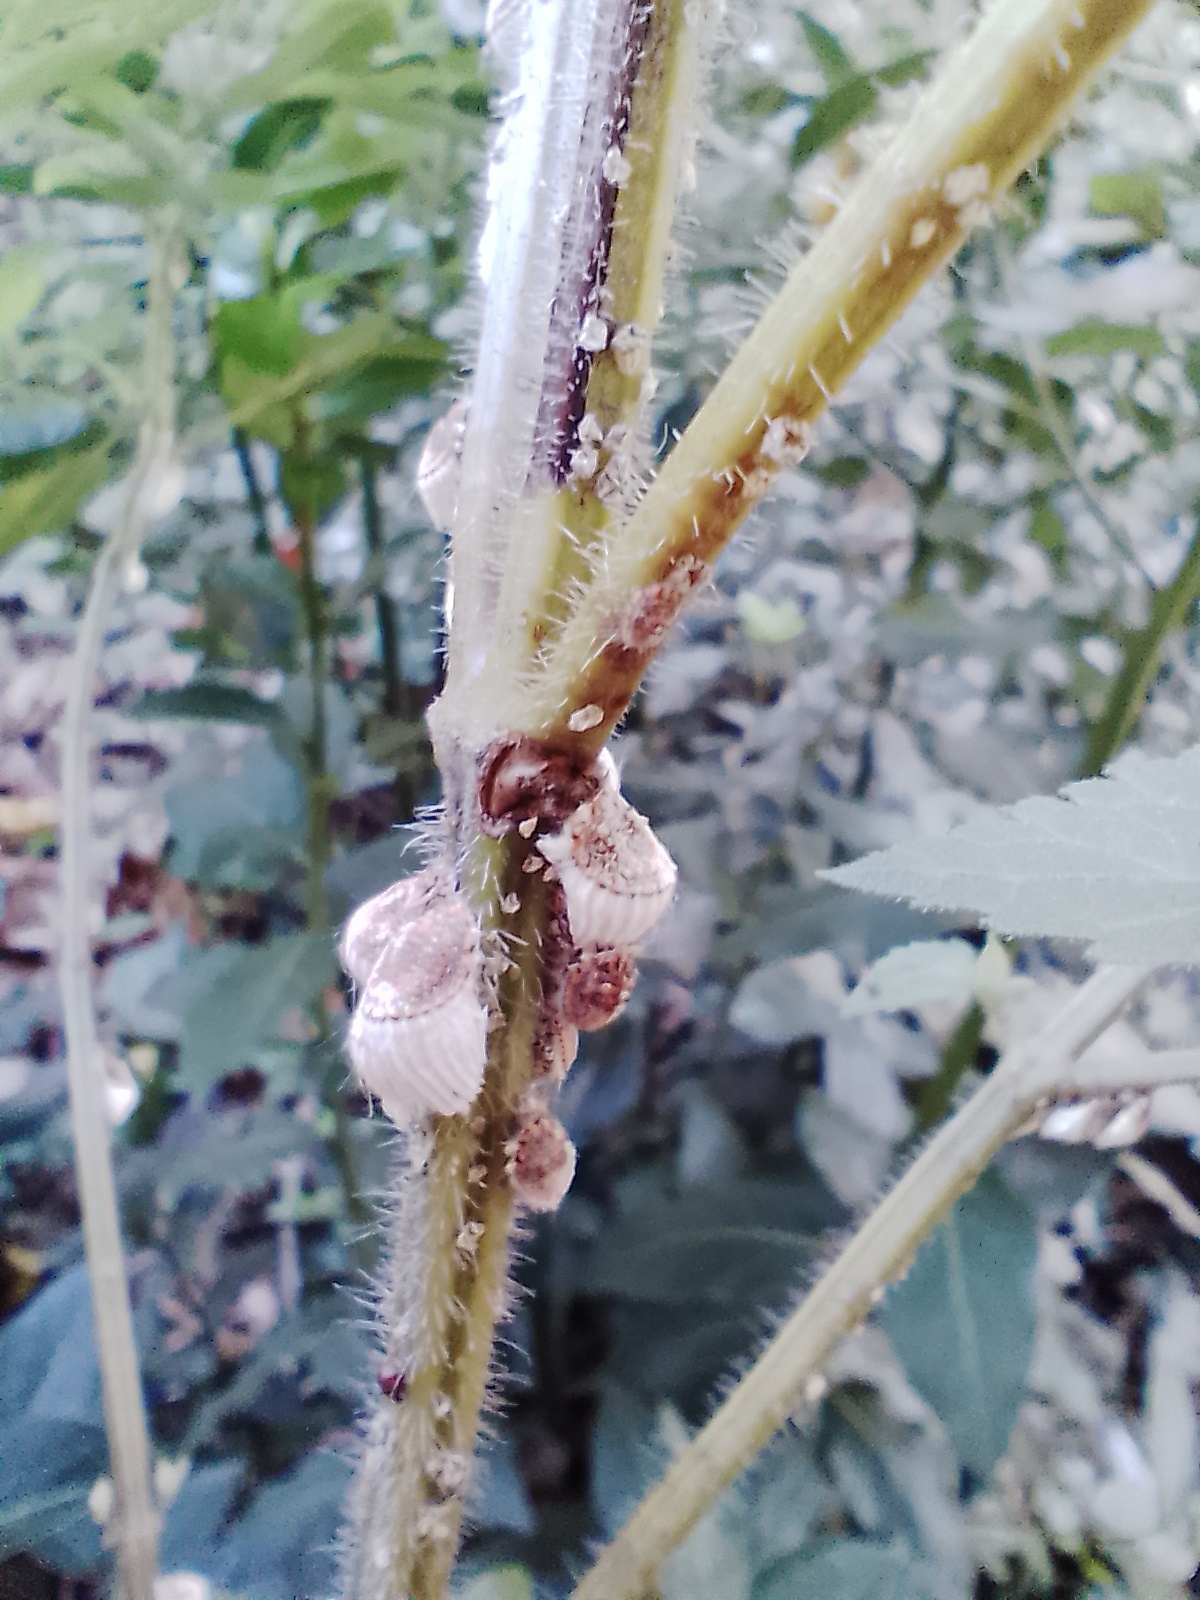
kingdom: Animalia
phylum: Arthropoda
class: Insecta
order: Hemiptera
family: Margarodidae
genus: Icerya
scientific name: Icerya purchasi
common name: Cottony cushion scale
